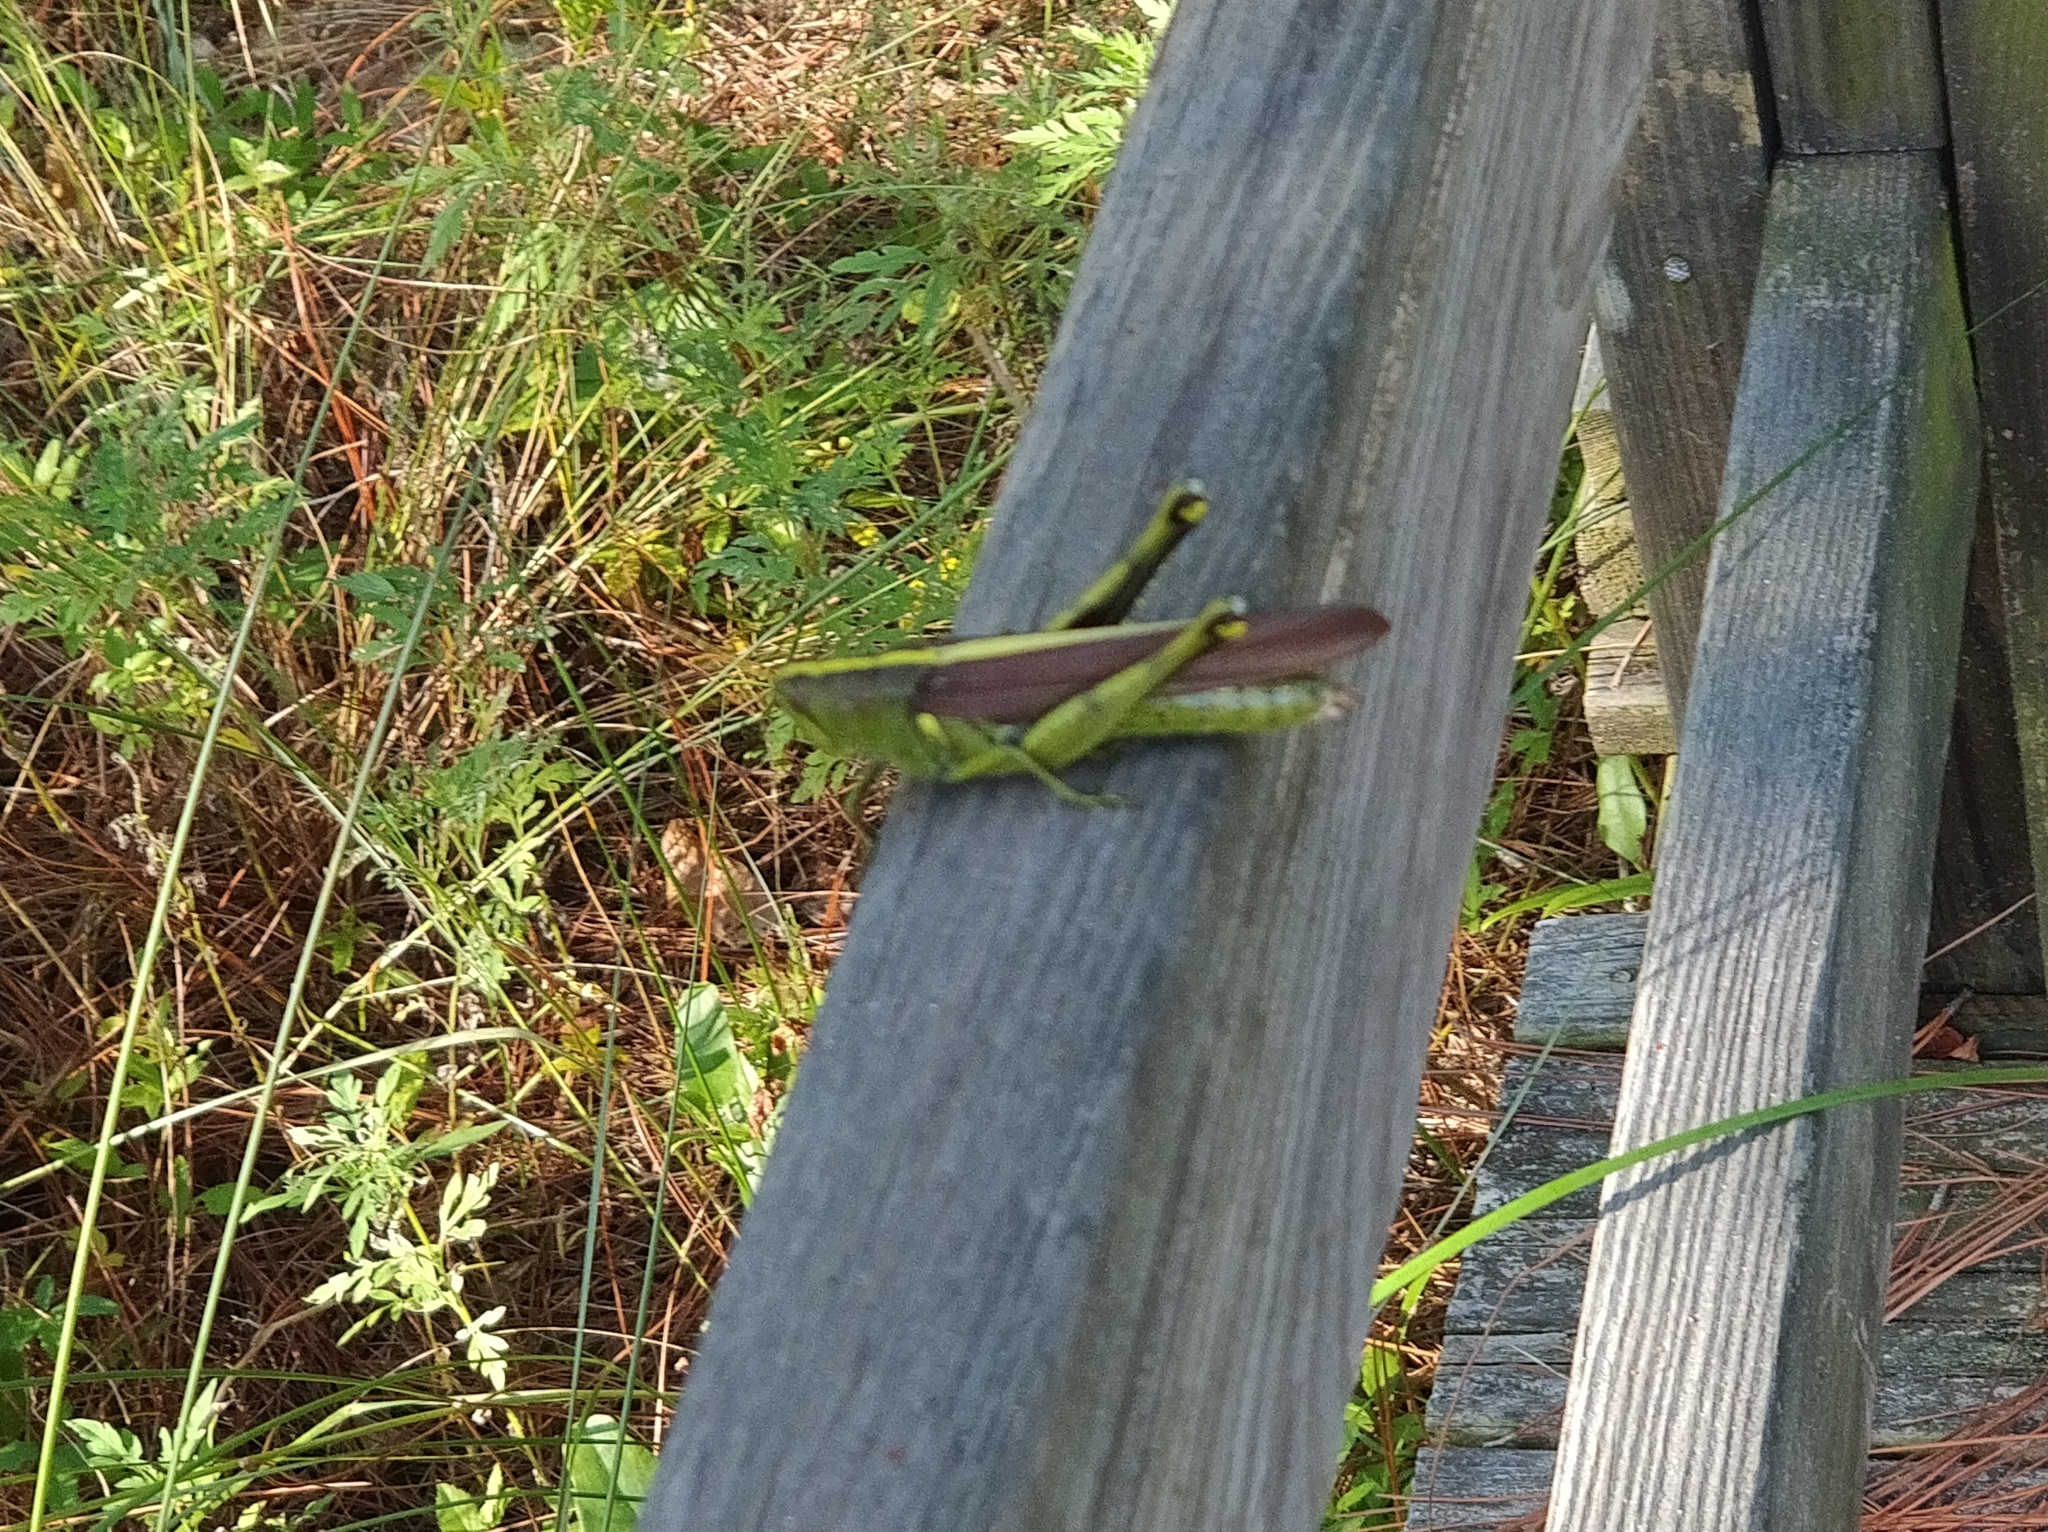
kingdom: Animalia
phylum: Arthropoda
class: Insecta
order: Orthoptera
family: Acrididae
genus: Schistocerca
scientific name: Schistocerca obscura
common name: Obscure bird grasshopper
